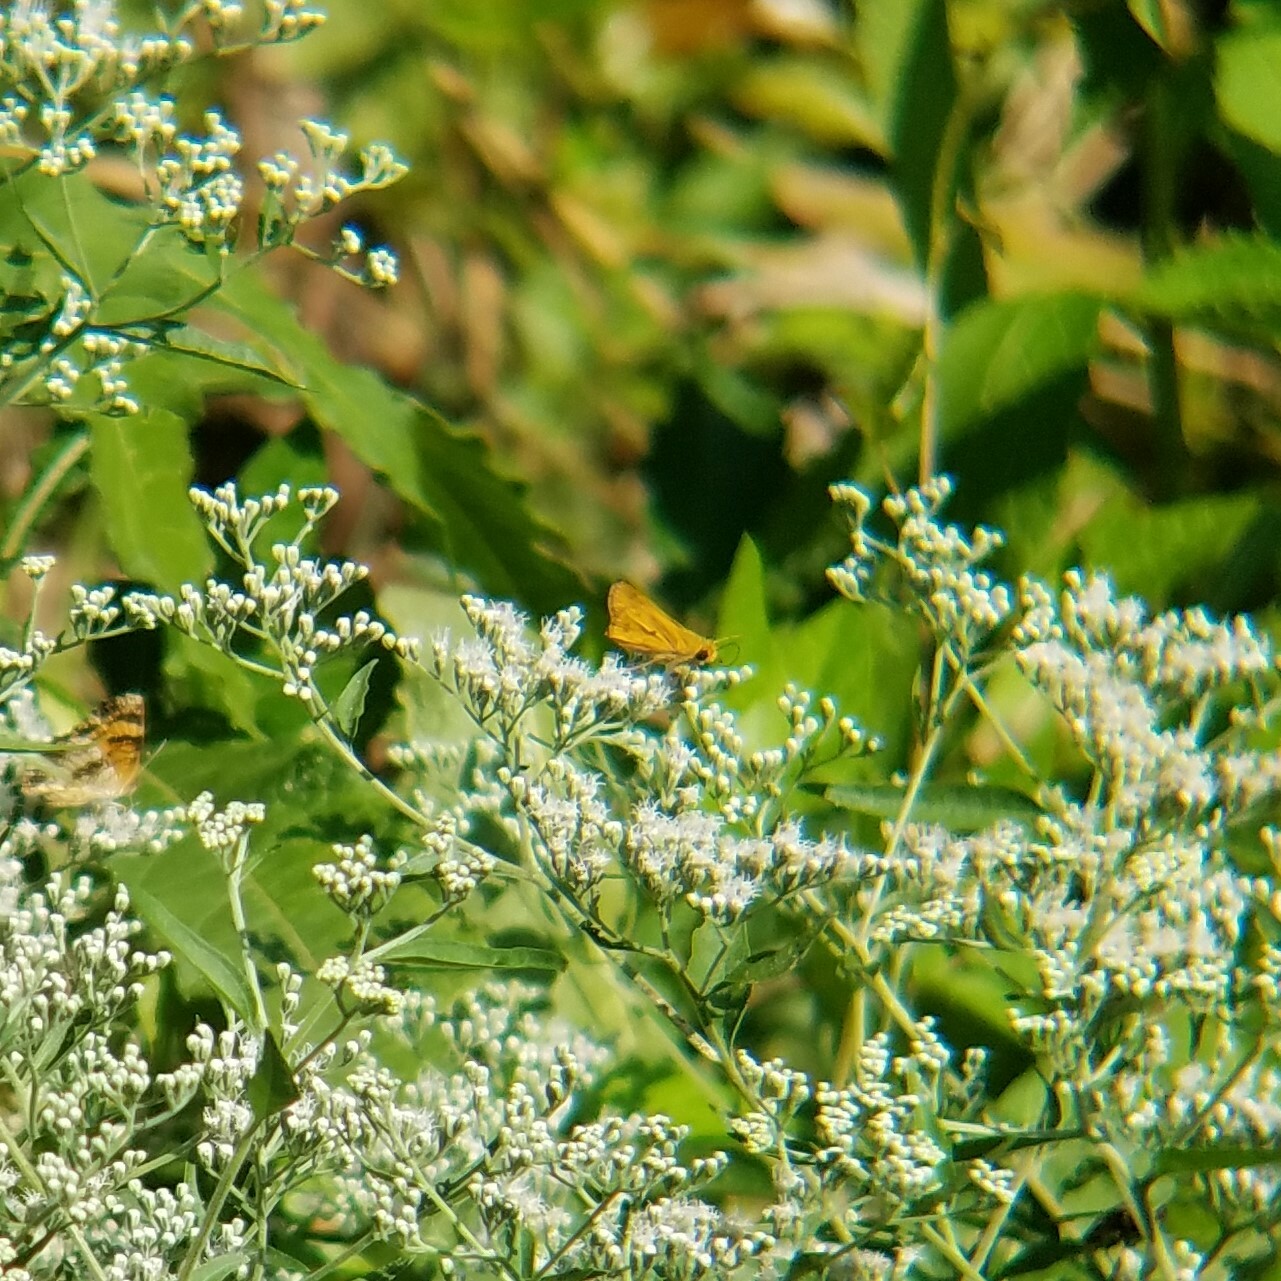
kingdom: Animalia
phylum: Arthropoda
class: Insecta
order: Lepidoptera
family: Hesperiidae
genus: Hylephila
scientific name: Hylephila phyleus
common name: Fiery skipper
